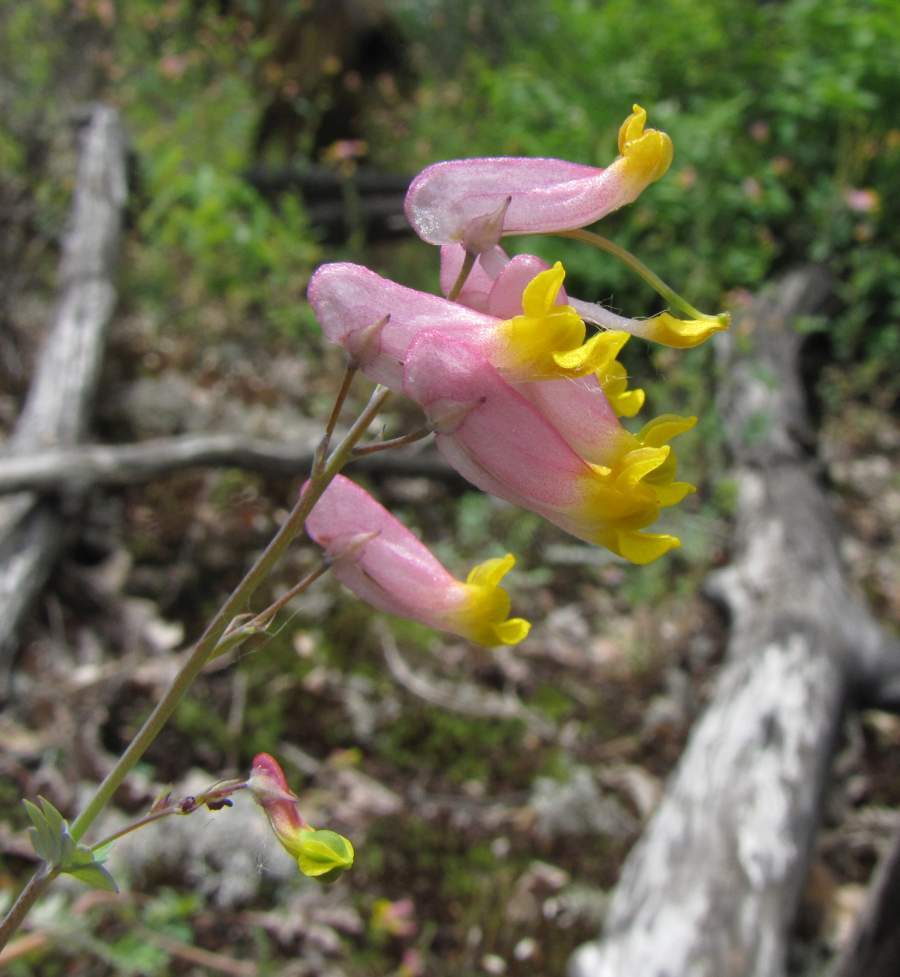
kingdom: Plantae
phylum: Tracheophyta
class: Magnoliopsida
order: Ranunculales
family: Papaveraceae
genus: Capnoides
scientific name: Capnoides sempervirens
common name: Rock harlequin
